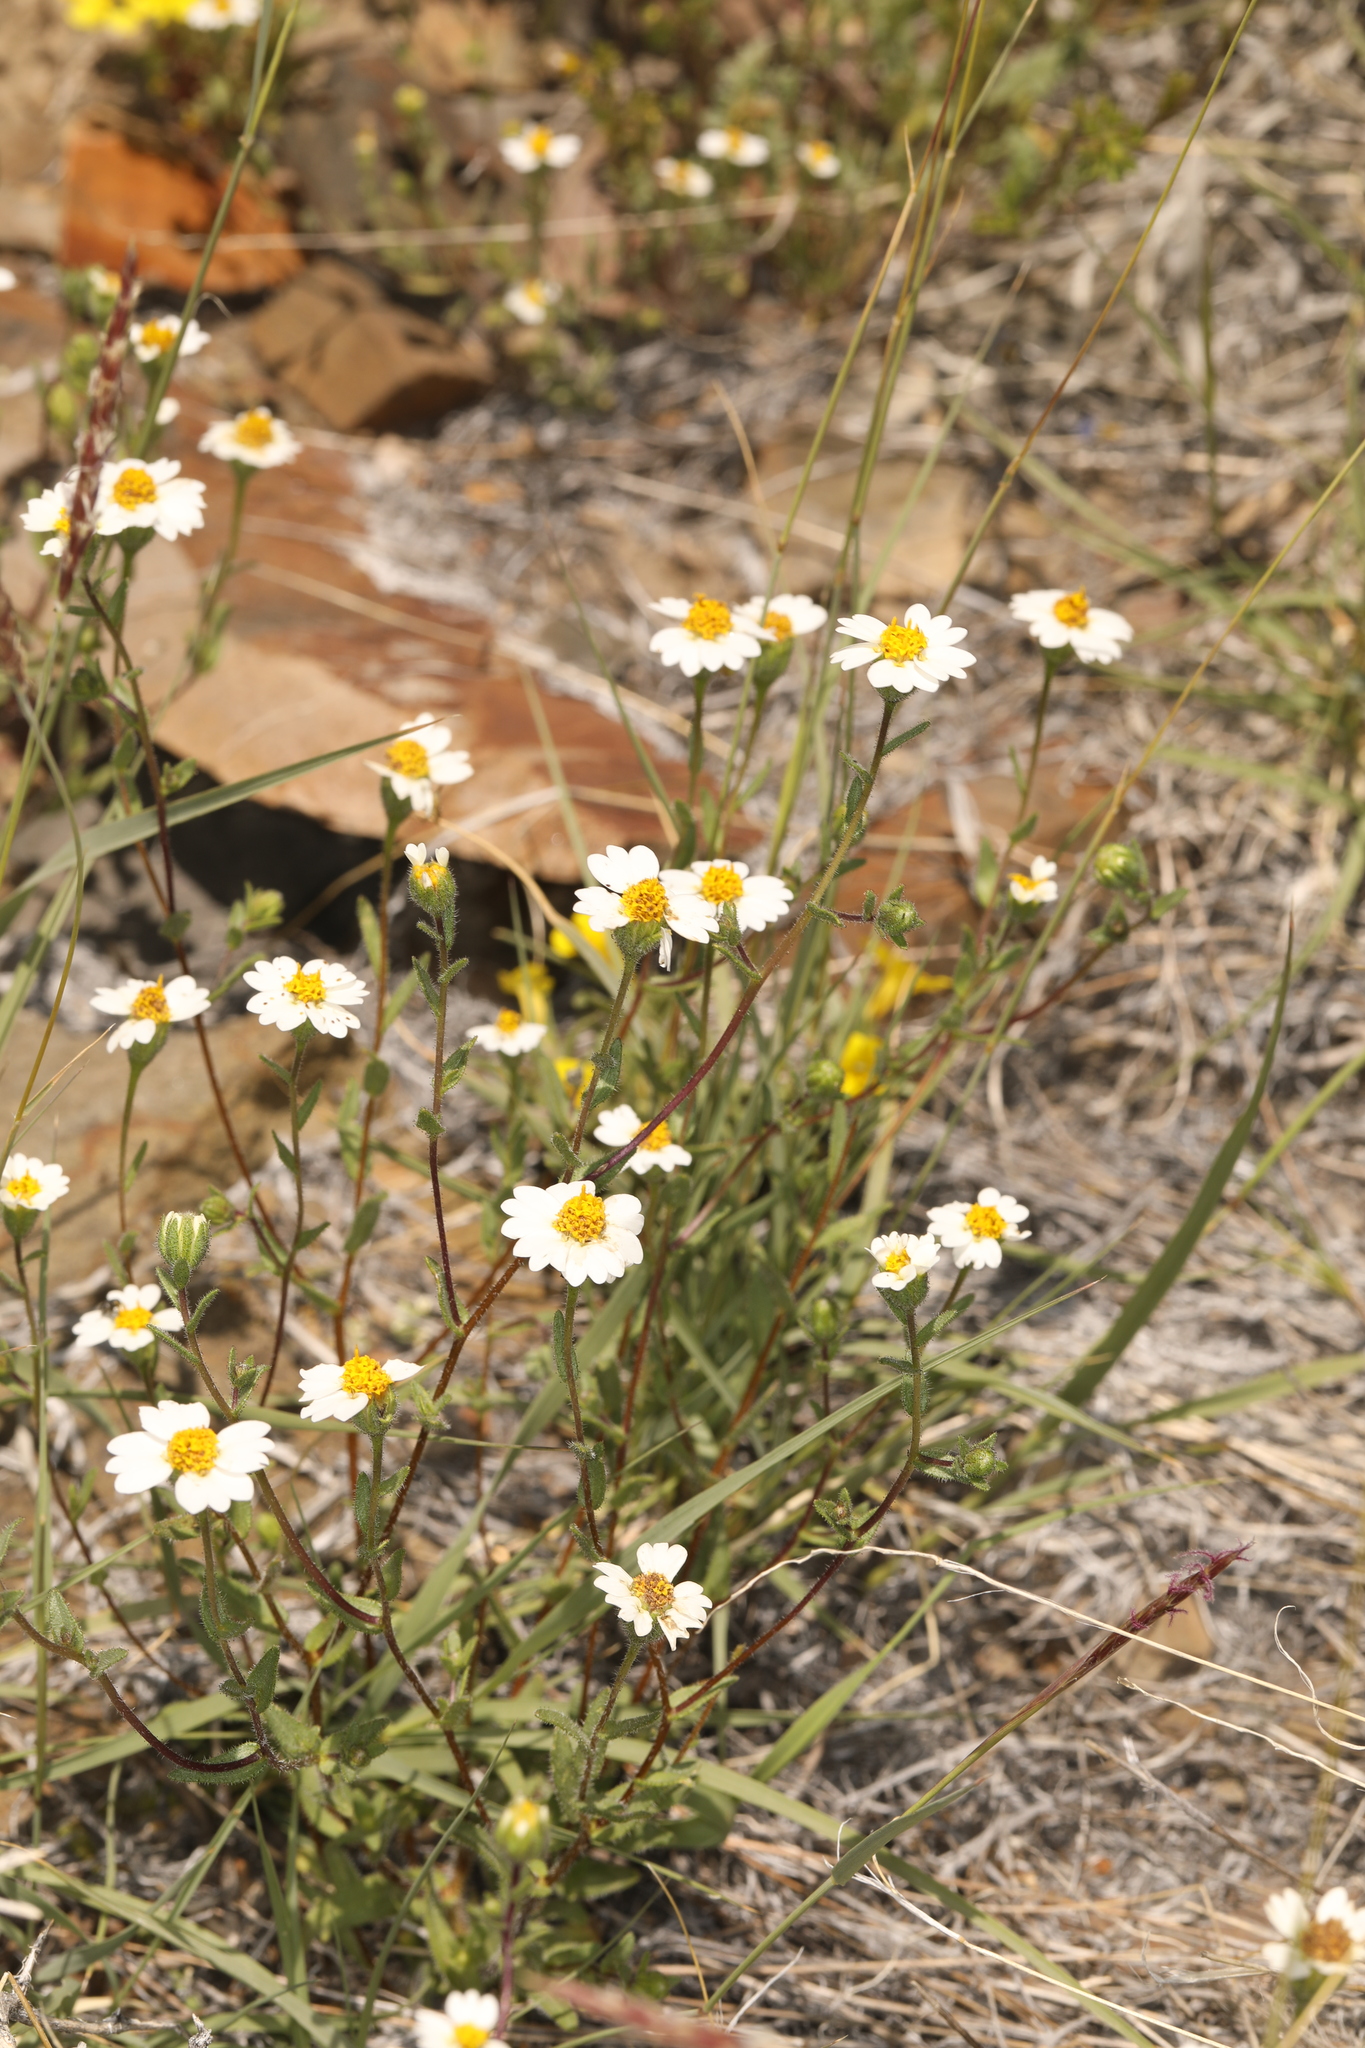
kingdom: Plantae
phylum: Tracheophyta
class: Magnoliopsida
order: Asterales
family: Asteraceae
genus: Layia
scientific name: Layia glandulosa
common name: White layia
